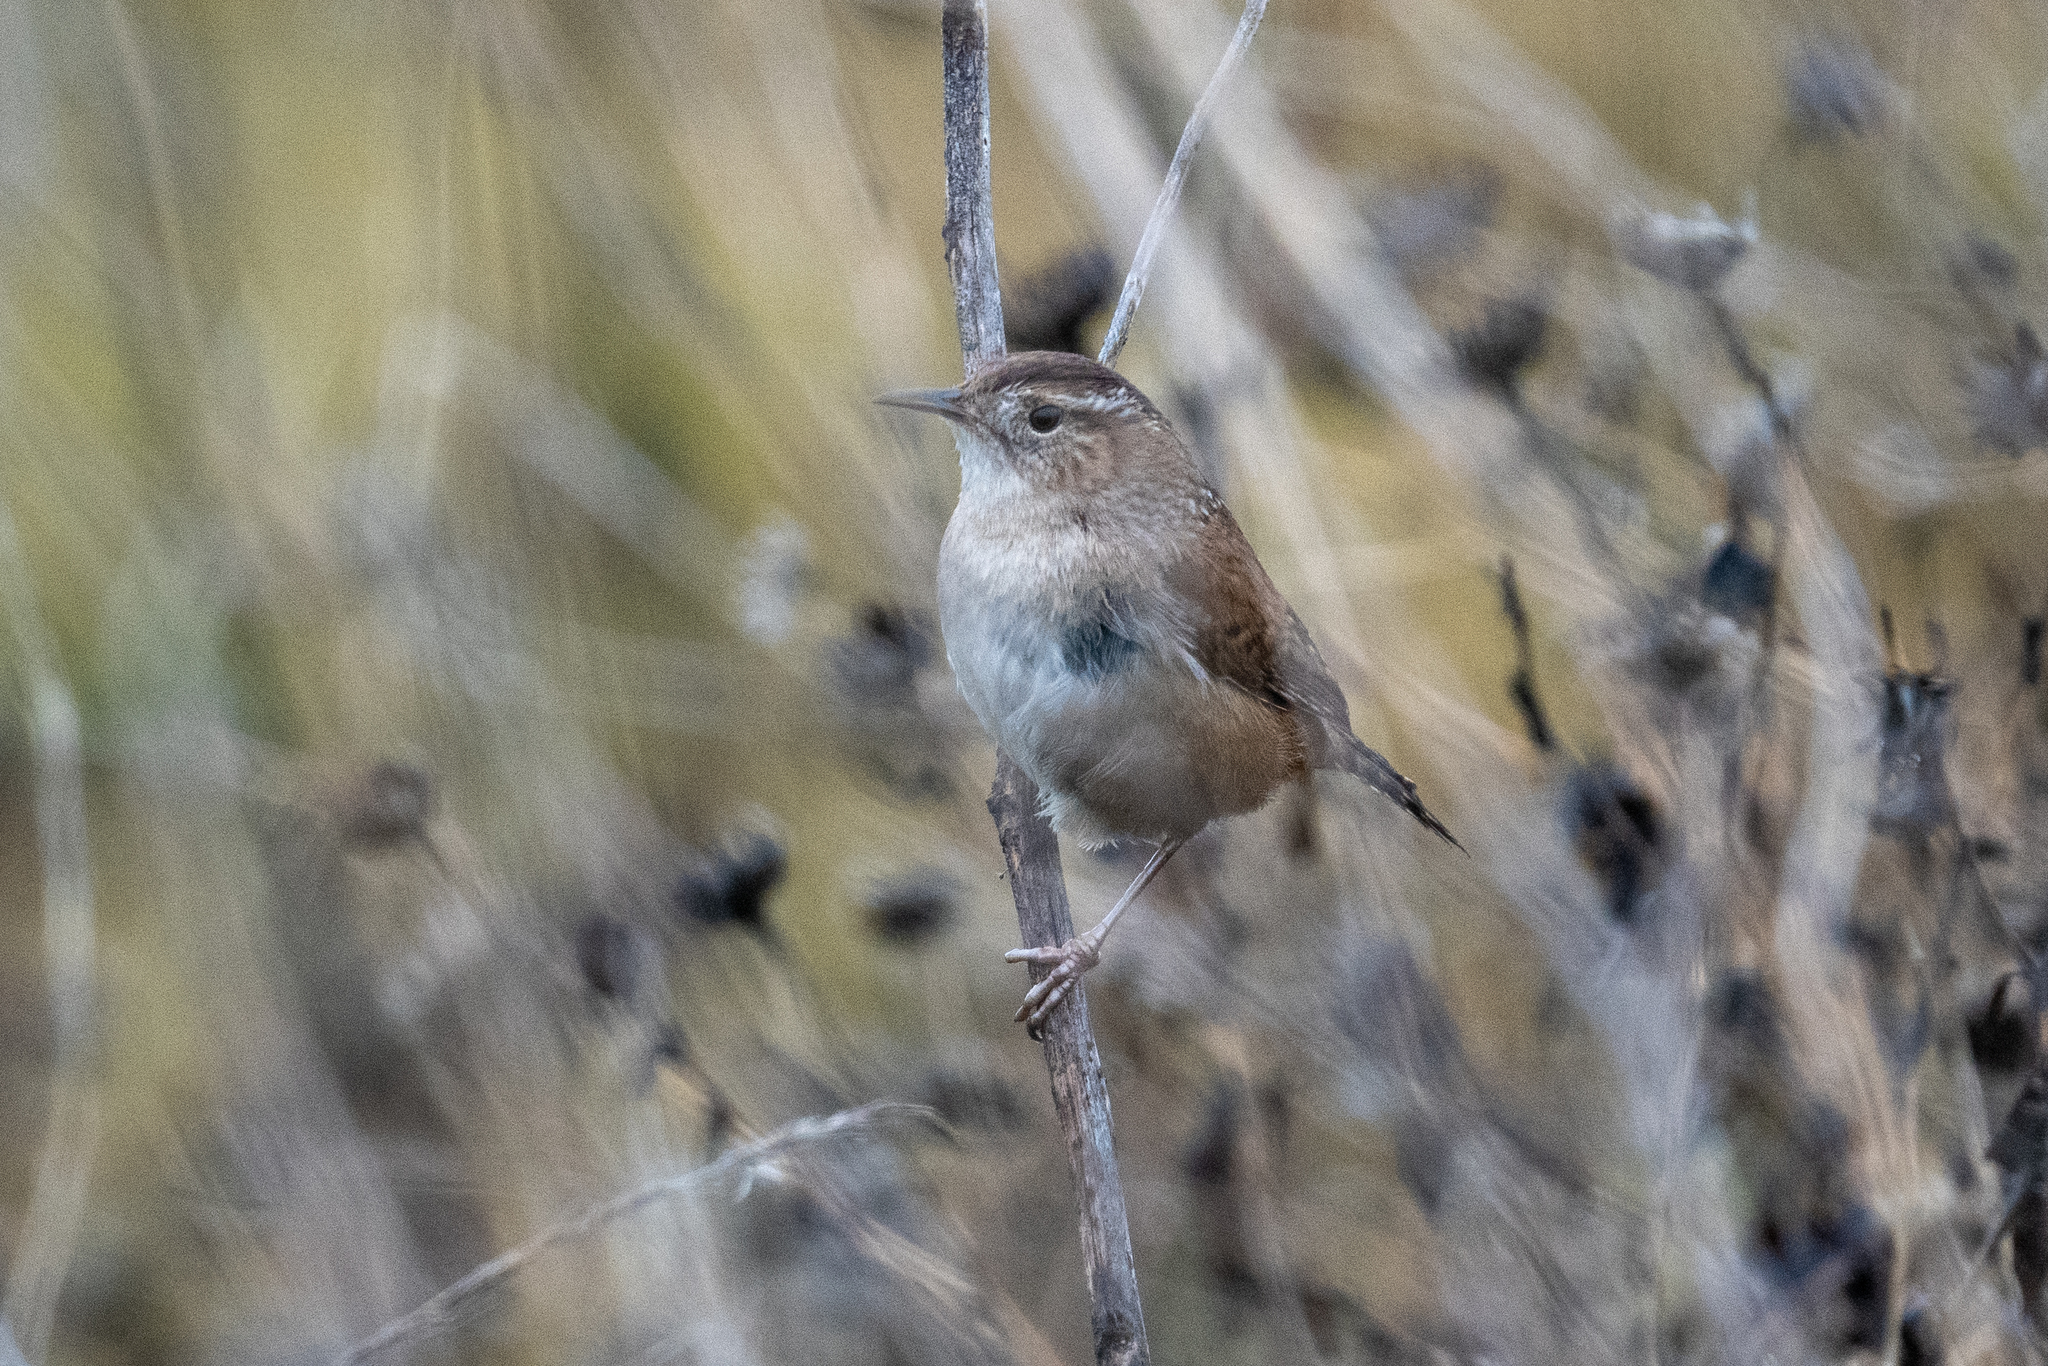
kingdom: Animalia
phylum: Chordata
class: Aves
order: Passeriformes
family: Troglodytidae
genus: Cistothorus
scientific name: Cistothorus palustris
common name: Marsh wren
